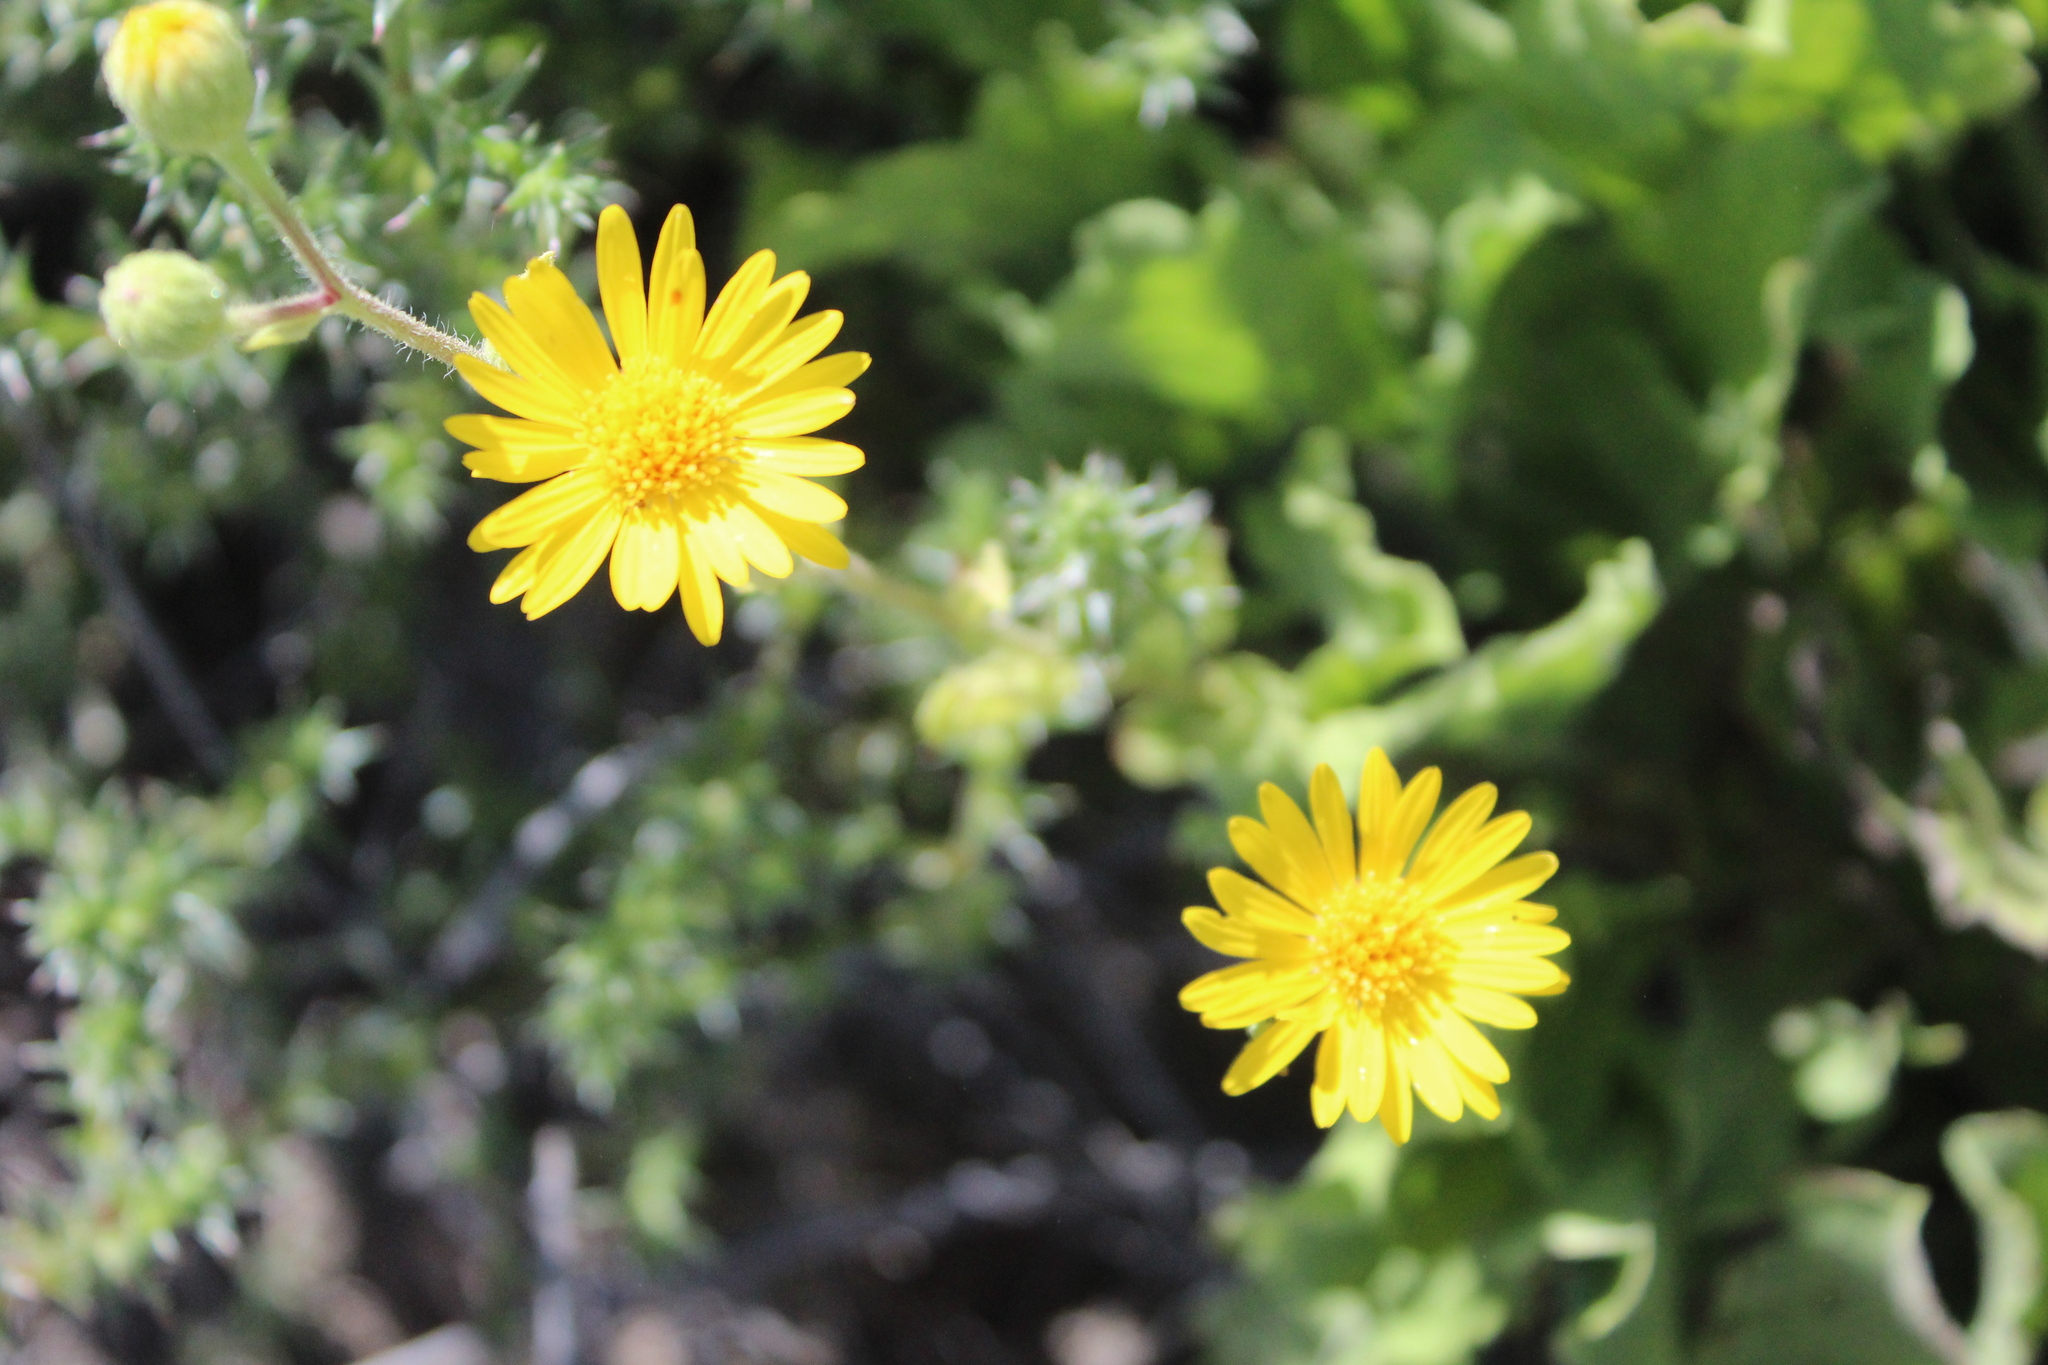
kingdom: Plantae
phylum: Tracheophyta
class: Magnoliopsida
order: Asterales
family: Asteraceae
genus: Heterotheca
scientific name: Heterotheca subaxillaris
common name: Camphorweed
